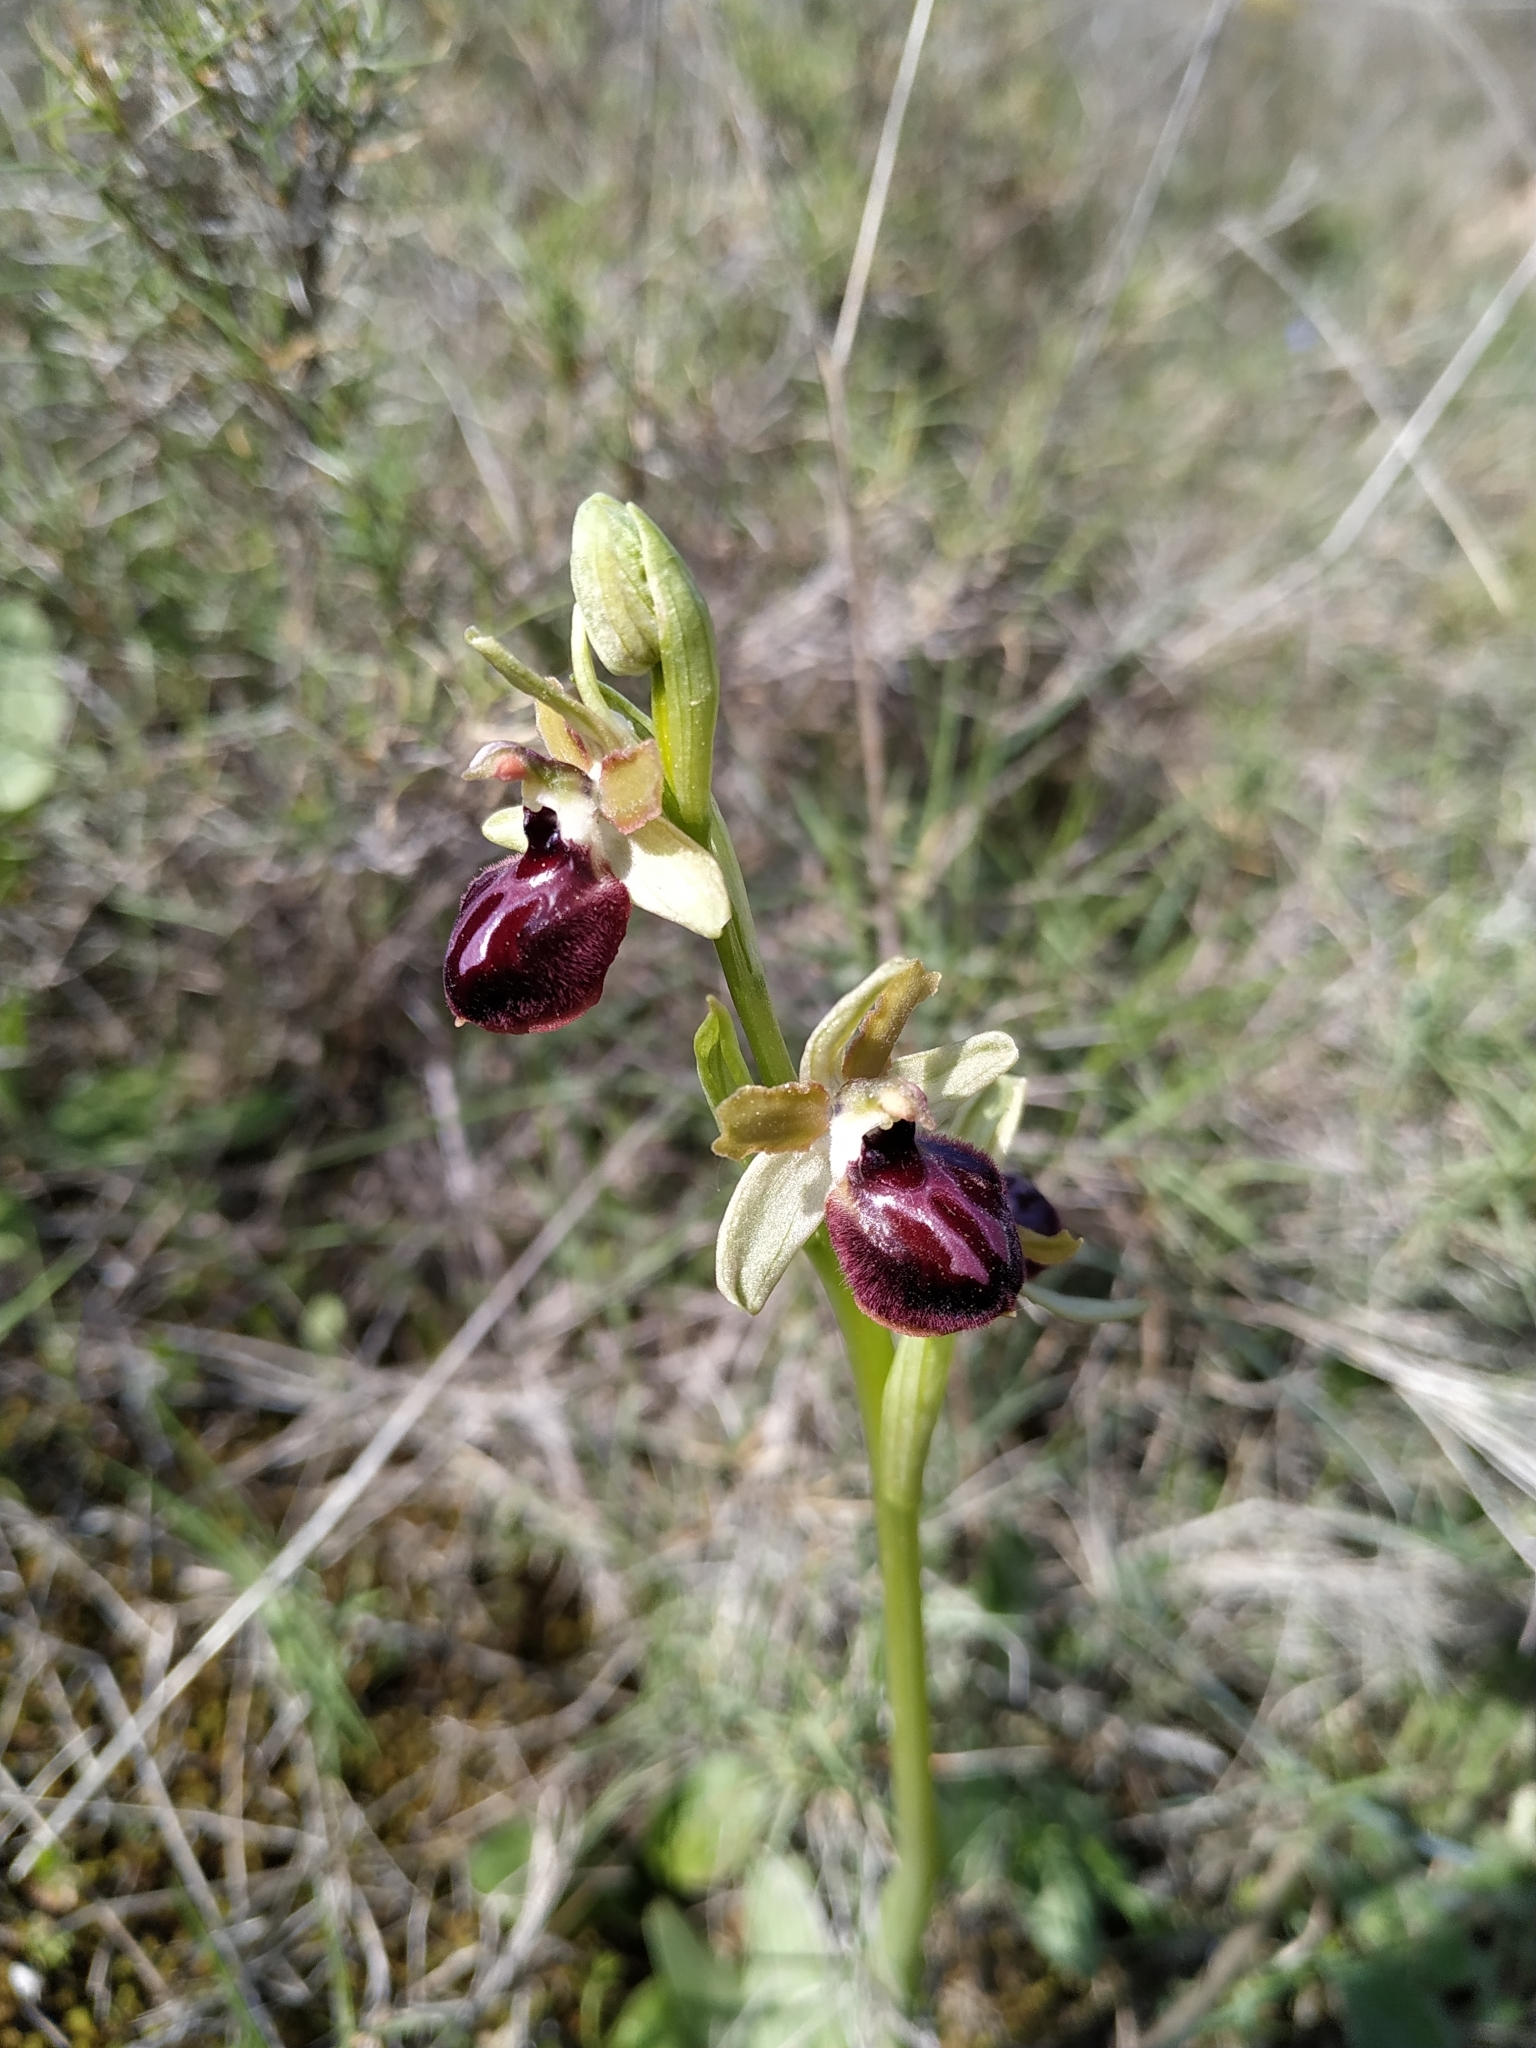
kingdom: Plantae
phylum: Tracheophyta
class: Liliopsida
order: Asparagales
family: Orchidaceae
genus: Ophrys
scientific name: Ophrys sphegodes
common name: Early spider-orchid
